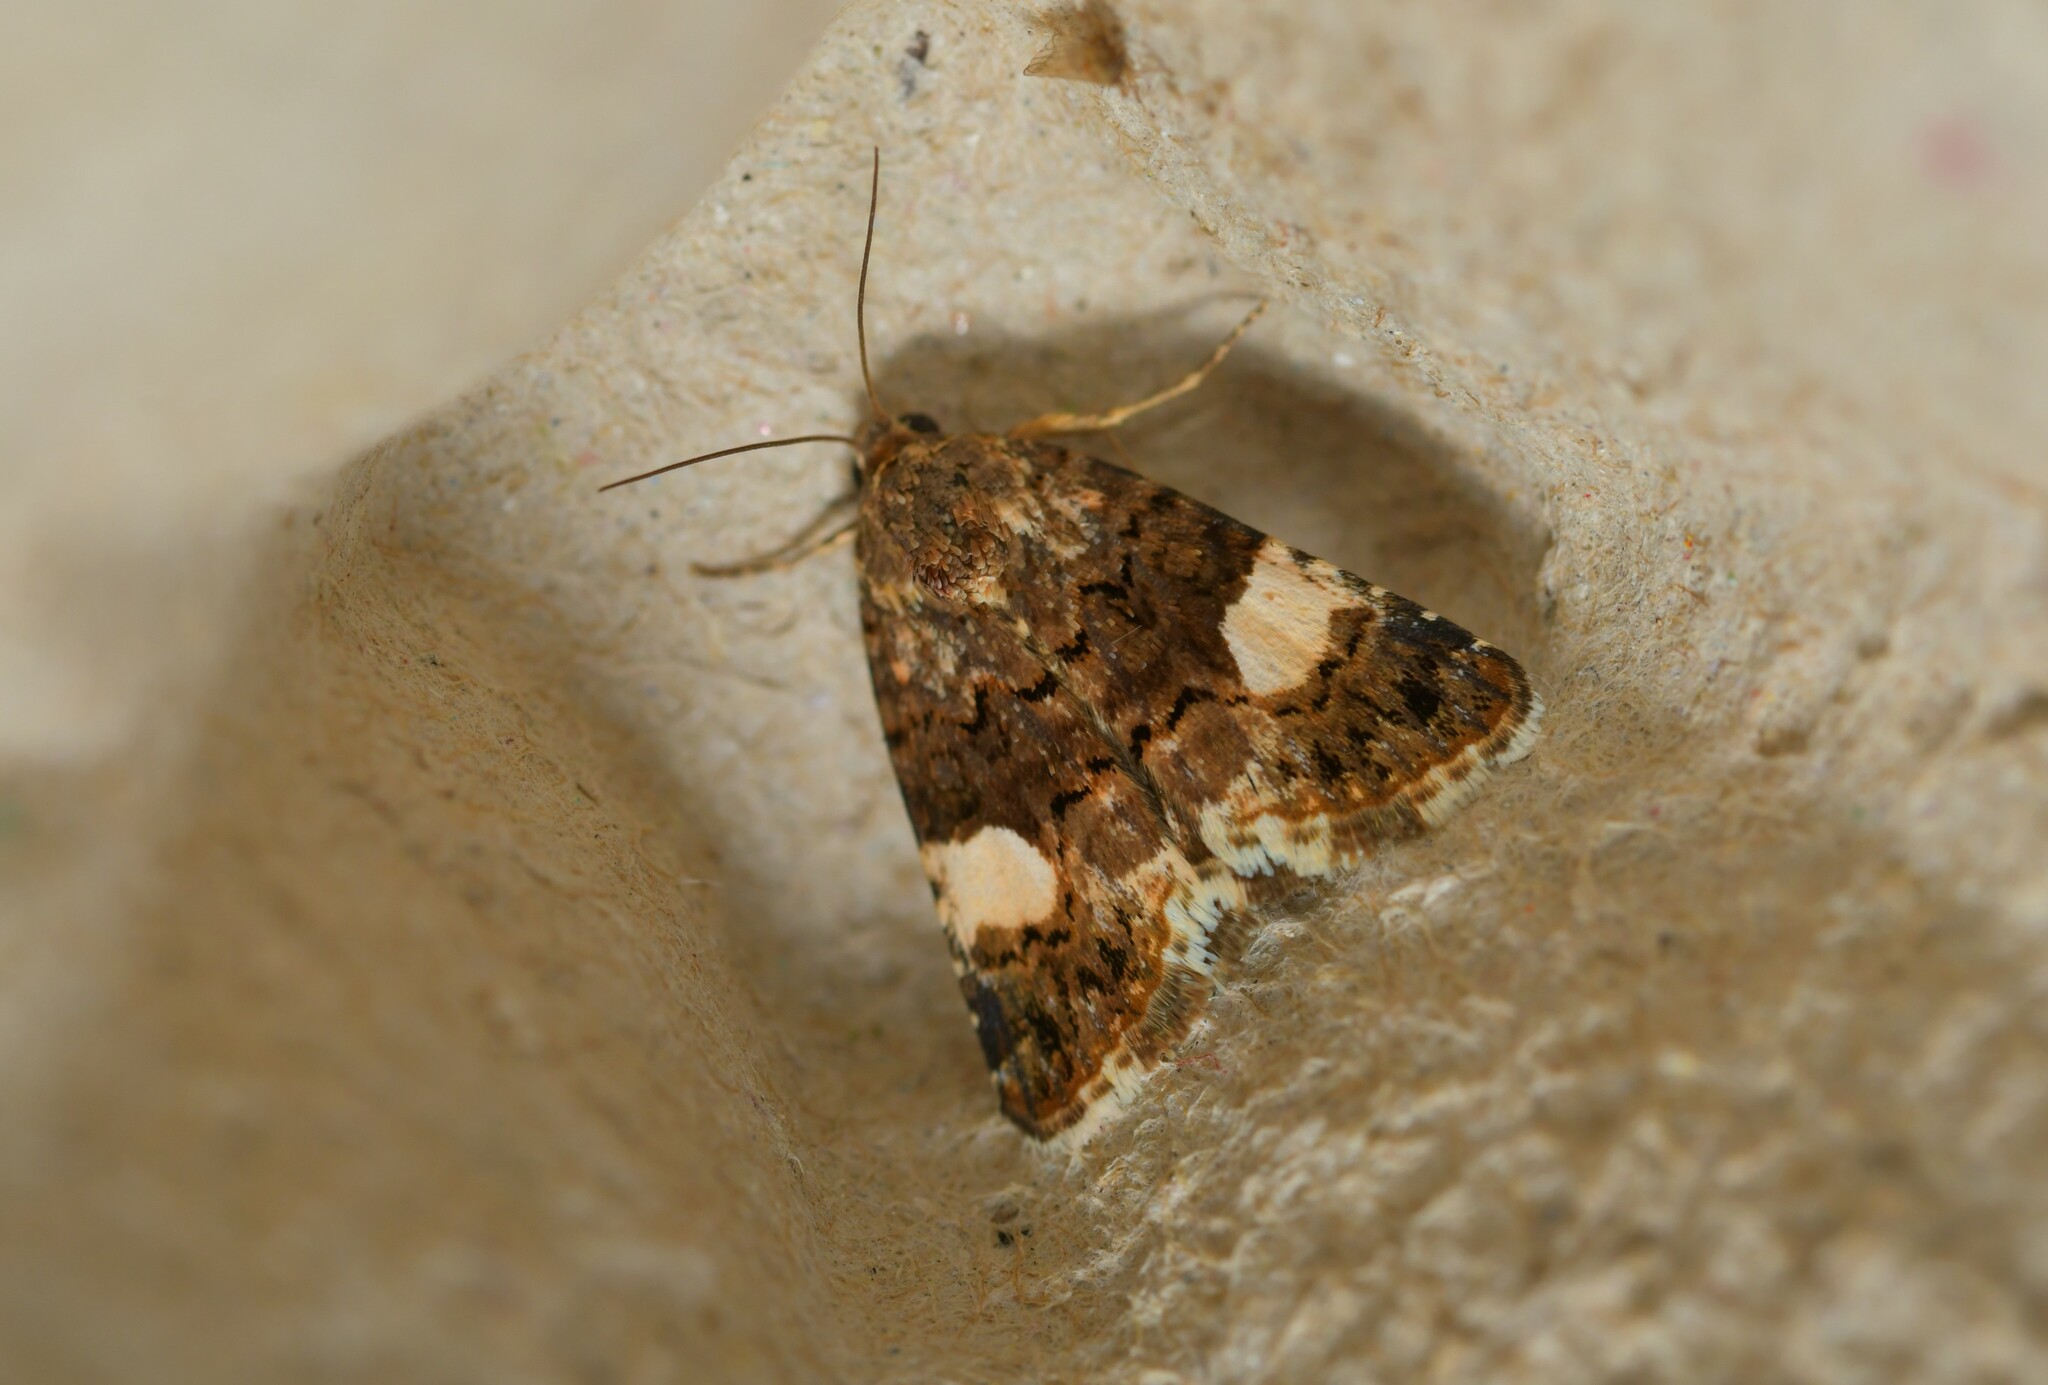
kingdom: Animalia
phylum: Arthropoda
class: Insecta
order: Lepidoptera
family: Erebidae
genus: Tyta
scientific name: Tyta luctuosa
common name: Four-spotted
